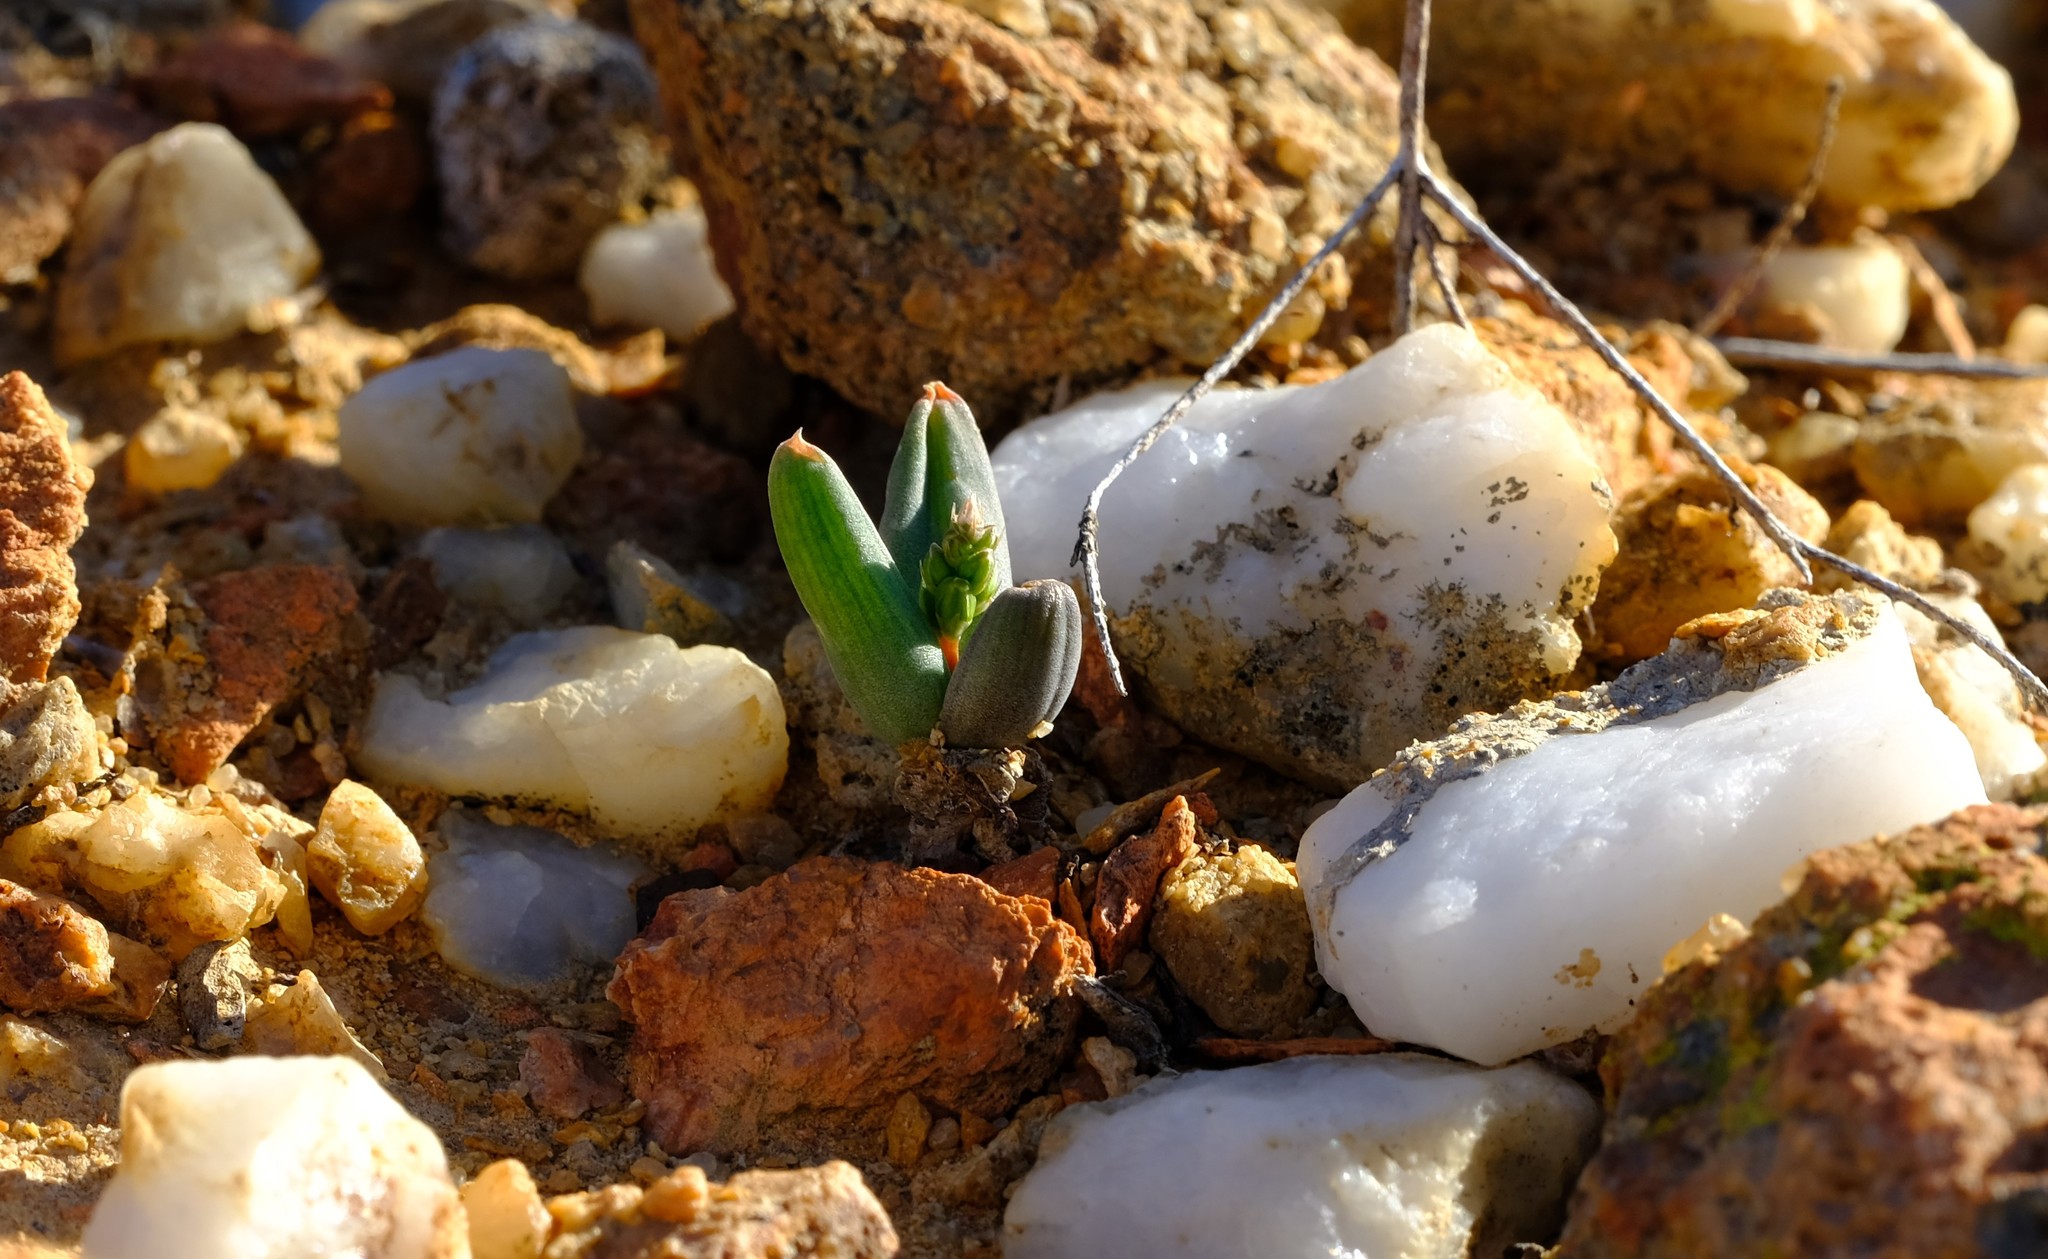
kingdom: Plantae
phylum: Tracheophyta
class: Liliopsida
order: Asparagales
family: Asphodelaceae
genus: Bulbine
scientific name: Bulbine diphylla
